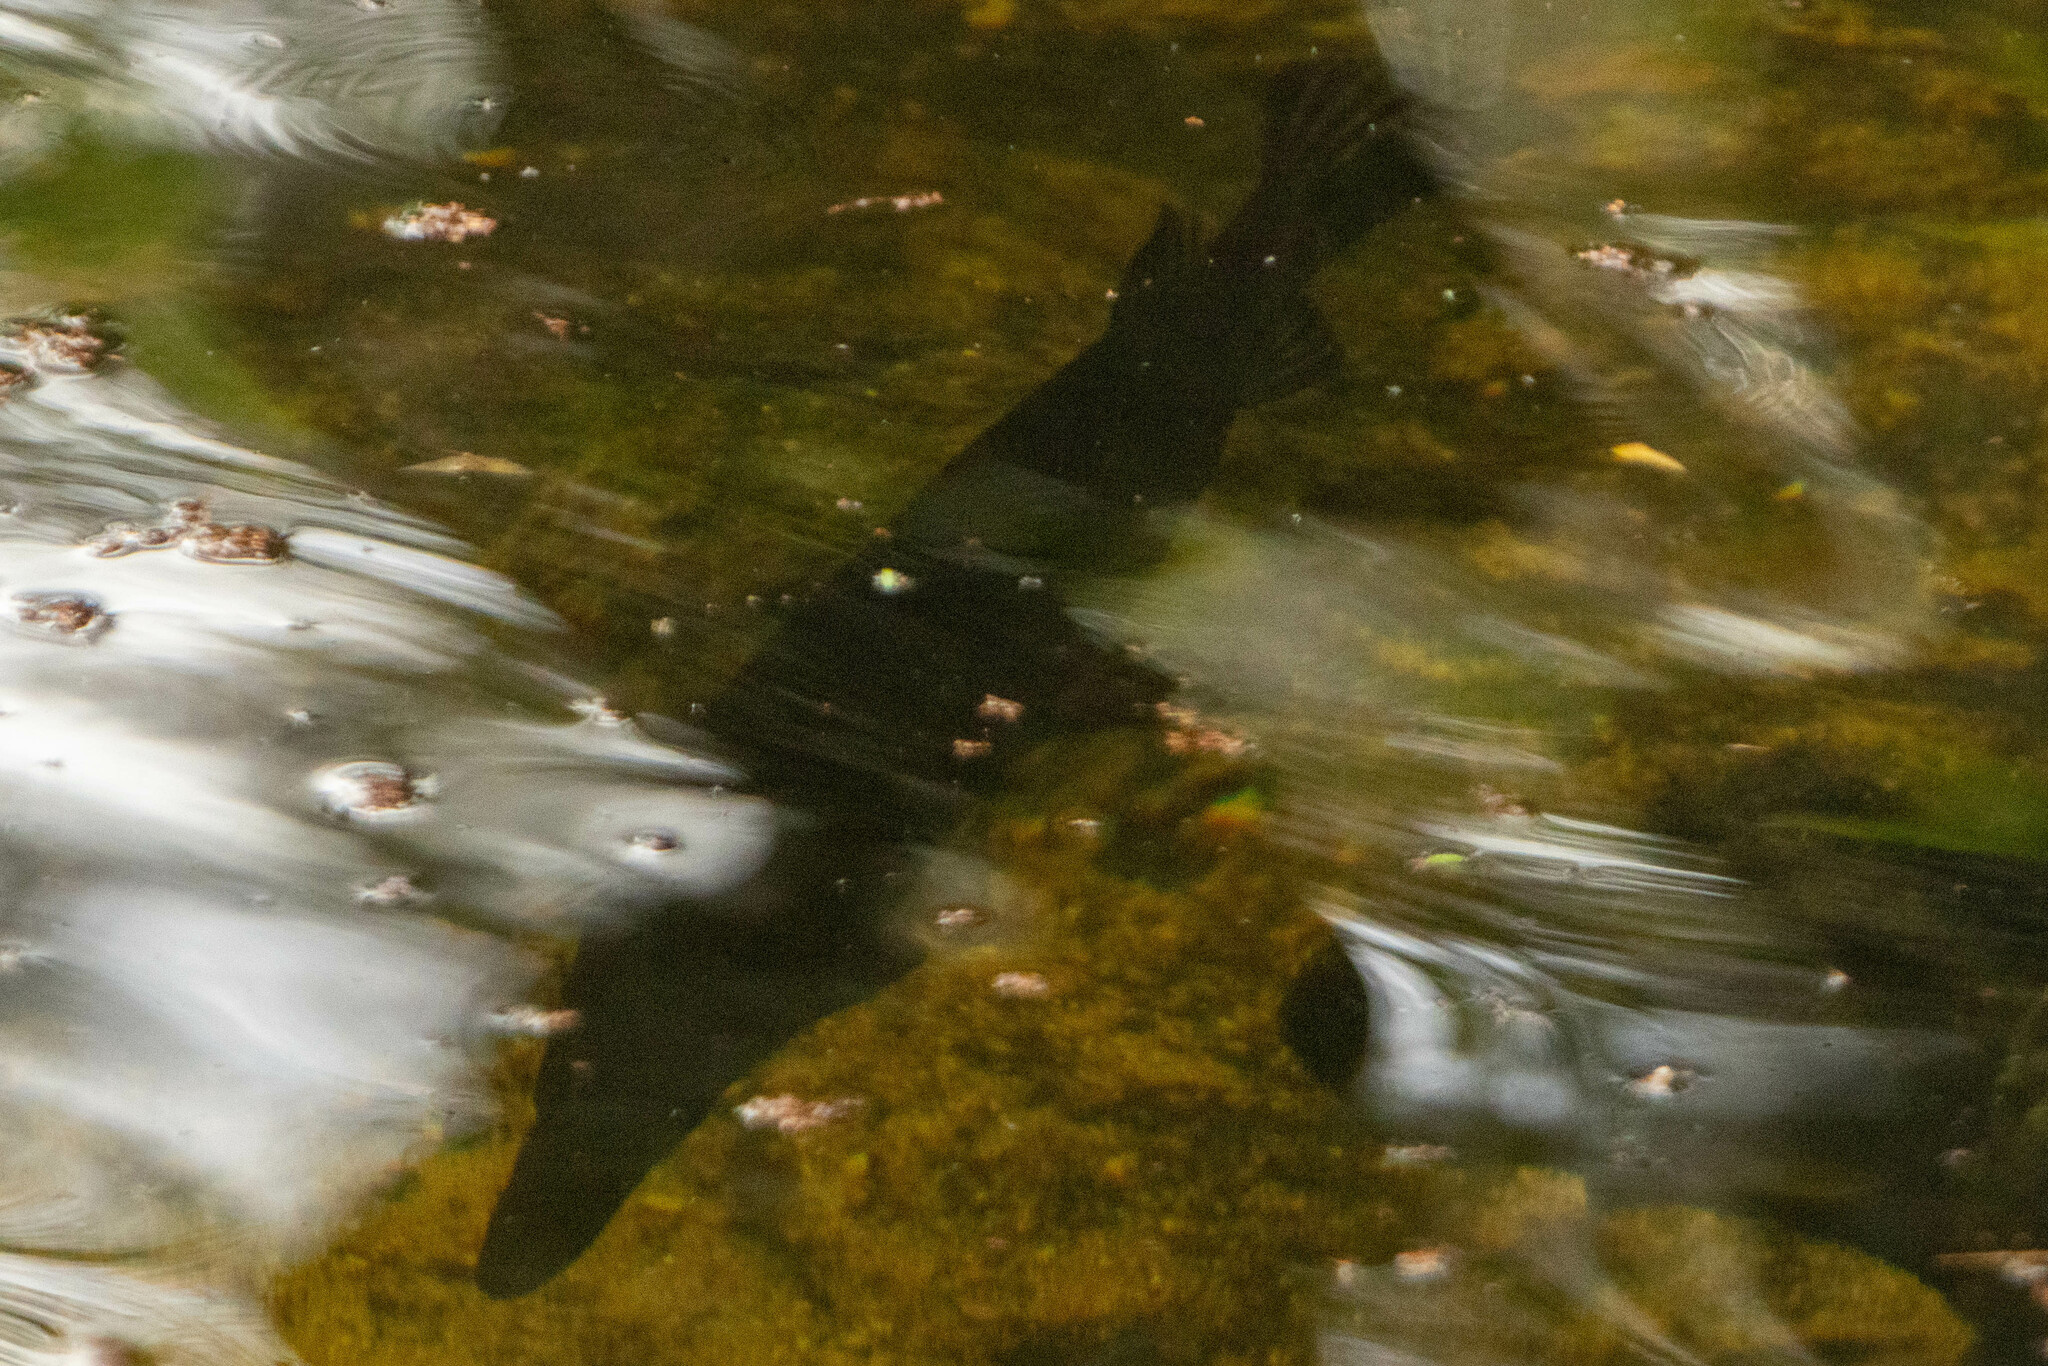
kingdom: Animalia
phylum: Chordata
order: Lepisosteiformes
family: Lepisosteidae
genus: Lepisosteus
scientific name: Lepisosteus platyrhincus
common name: Florida gar
